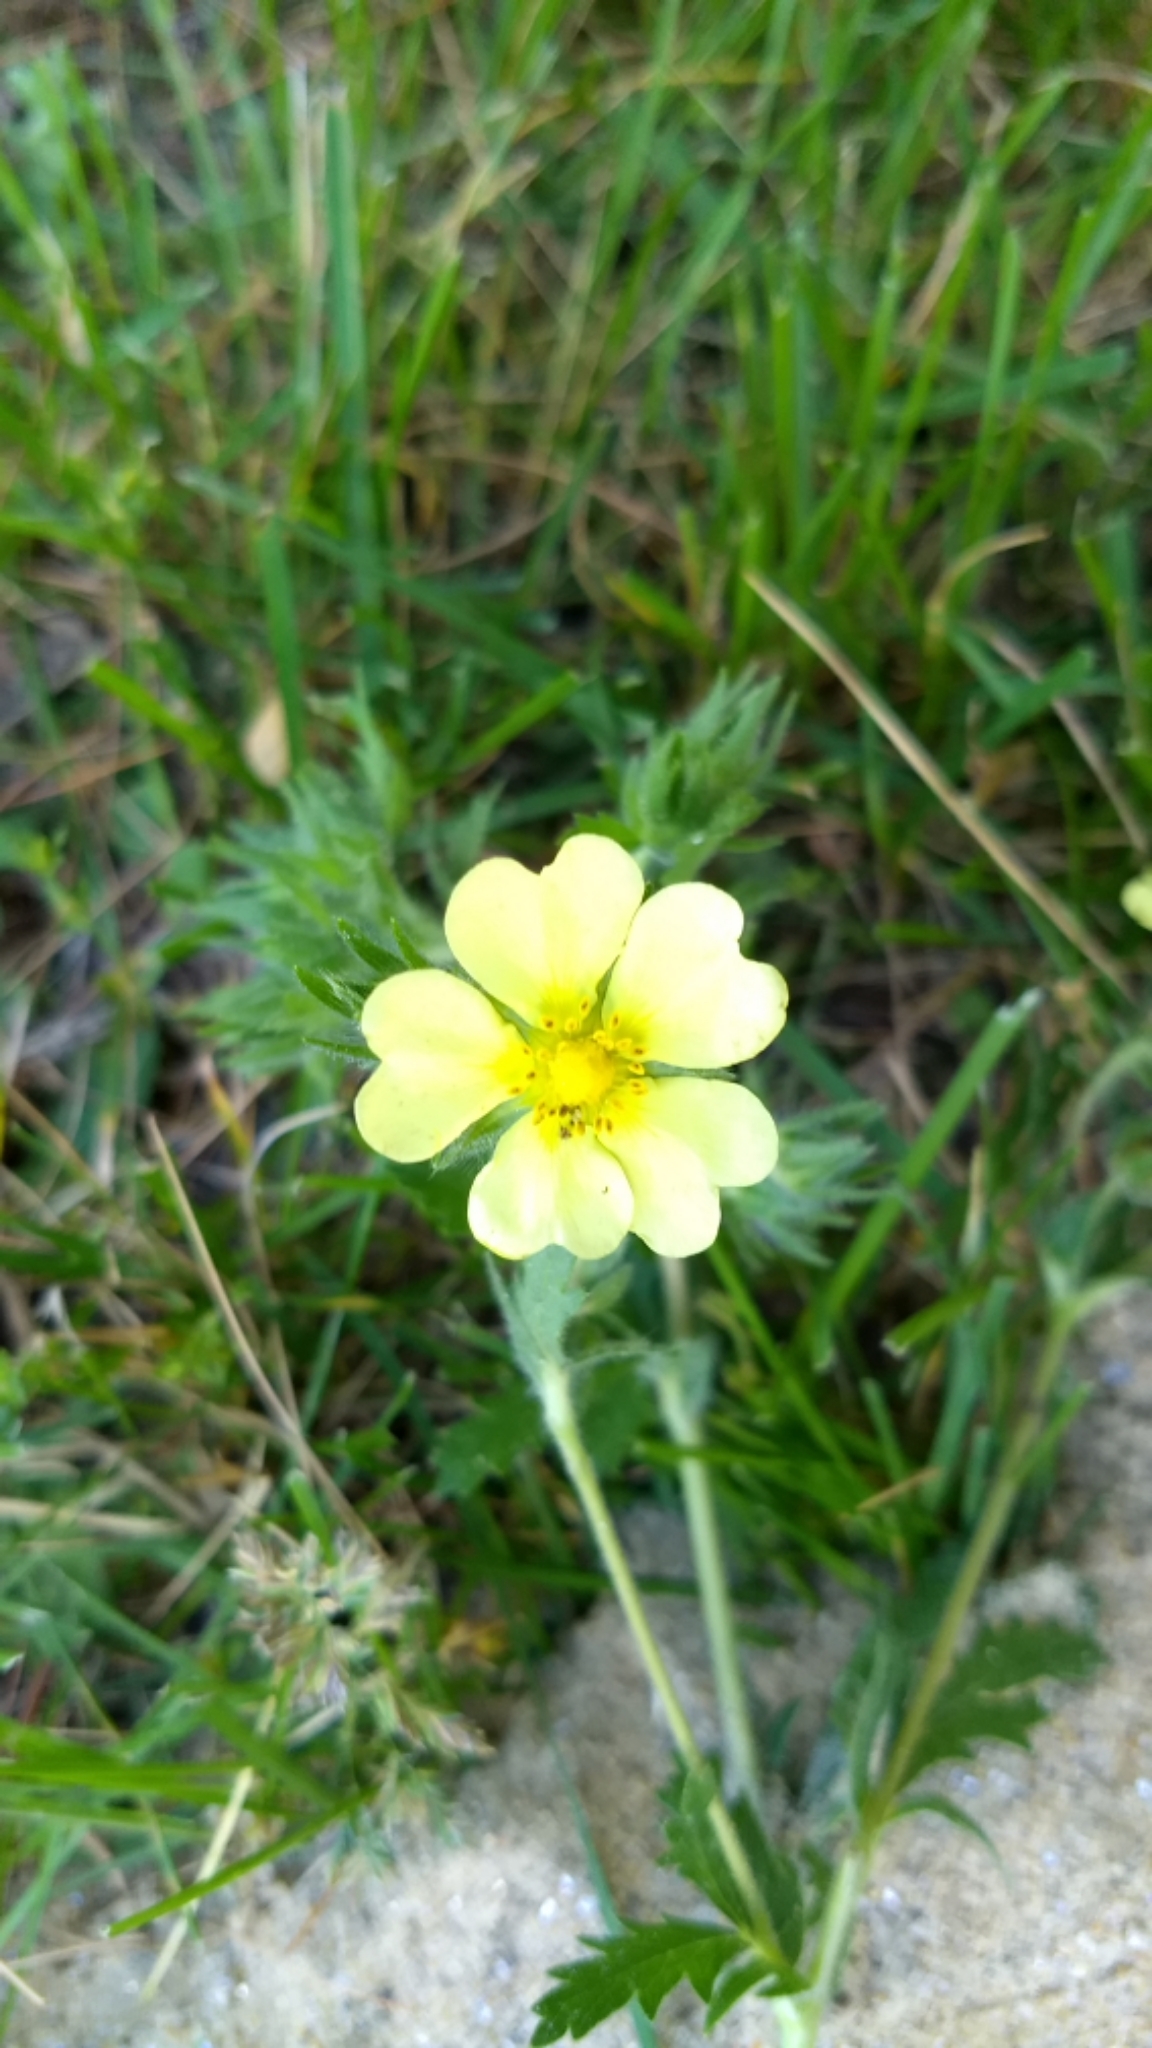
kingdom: Plantae
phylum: Tracheophyta
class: Magnoliopsida
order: Rosales
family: Rosaceae
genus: Potentilla
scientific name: Potentilla recta
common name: Sulphur cinquefoil
